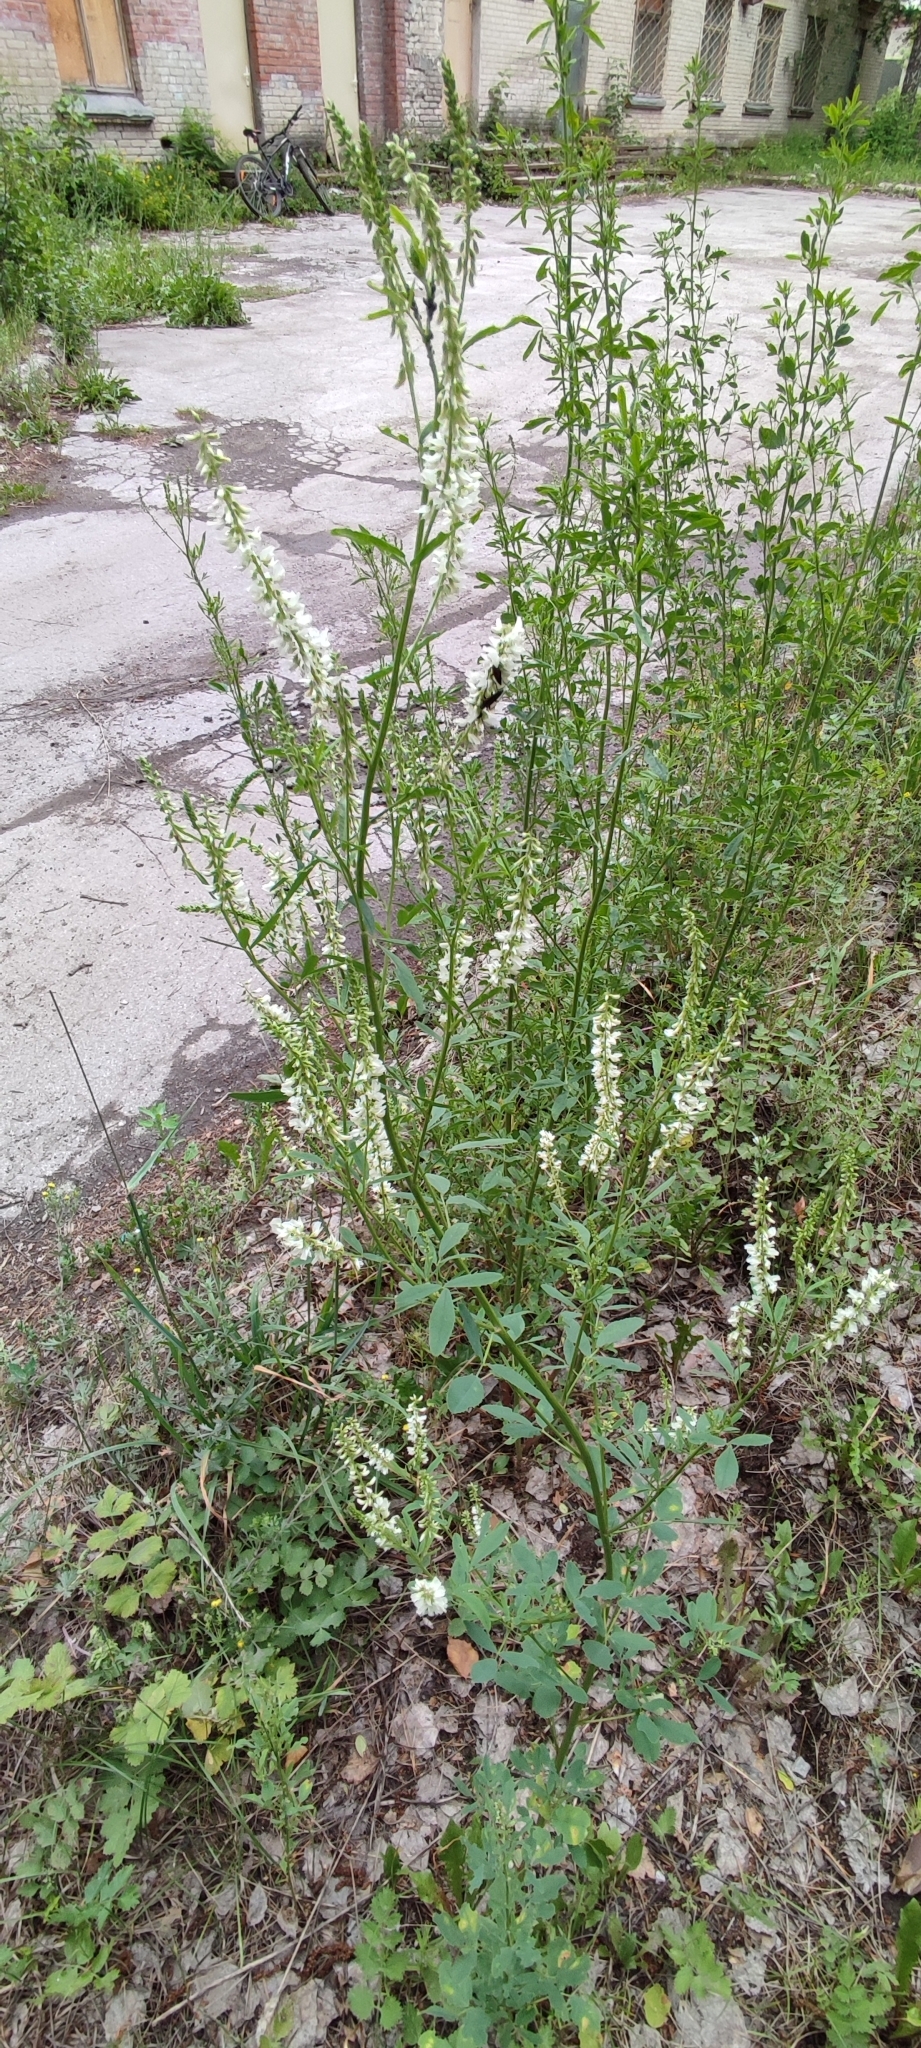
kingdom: Plantae
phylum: Tracheophyta
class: Magnoliopsida
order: Fabales
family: Fabaceae
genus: Melilotus
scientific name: Melilotus albus
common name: White melilot
